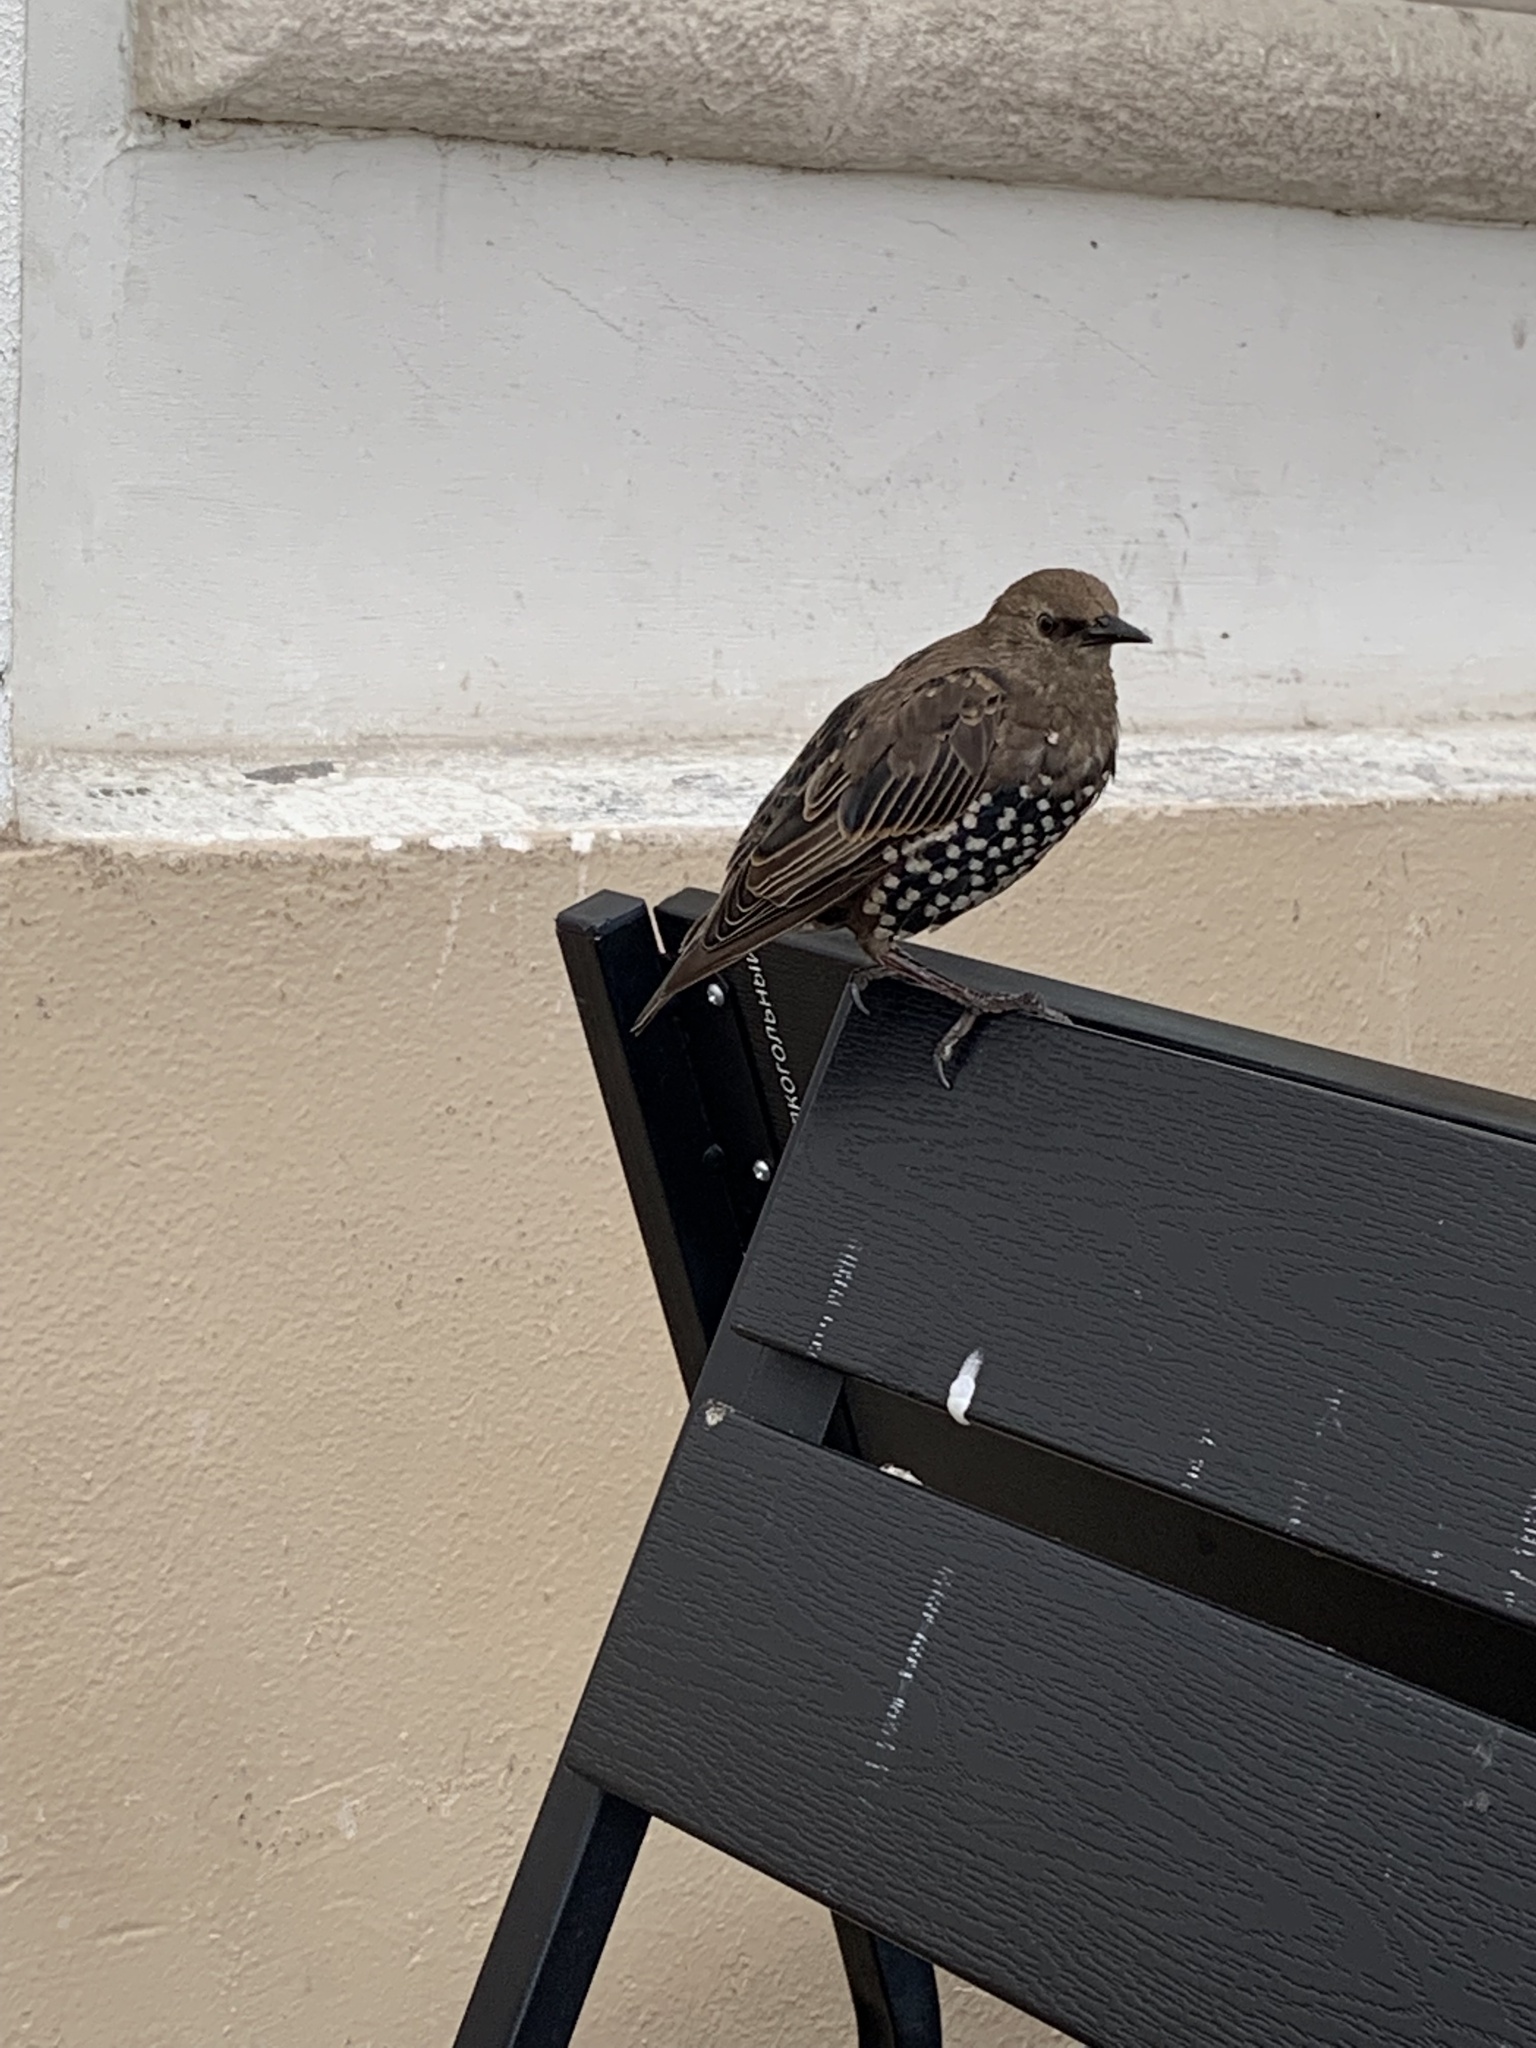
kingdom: Animalia
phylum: Chordata
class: Aves
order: Passeriformes
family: Sturnidae
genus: Sturnus
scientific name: Sturnus vulgaris
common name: Common starling
